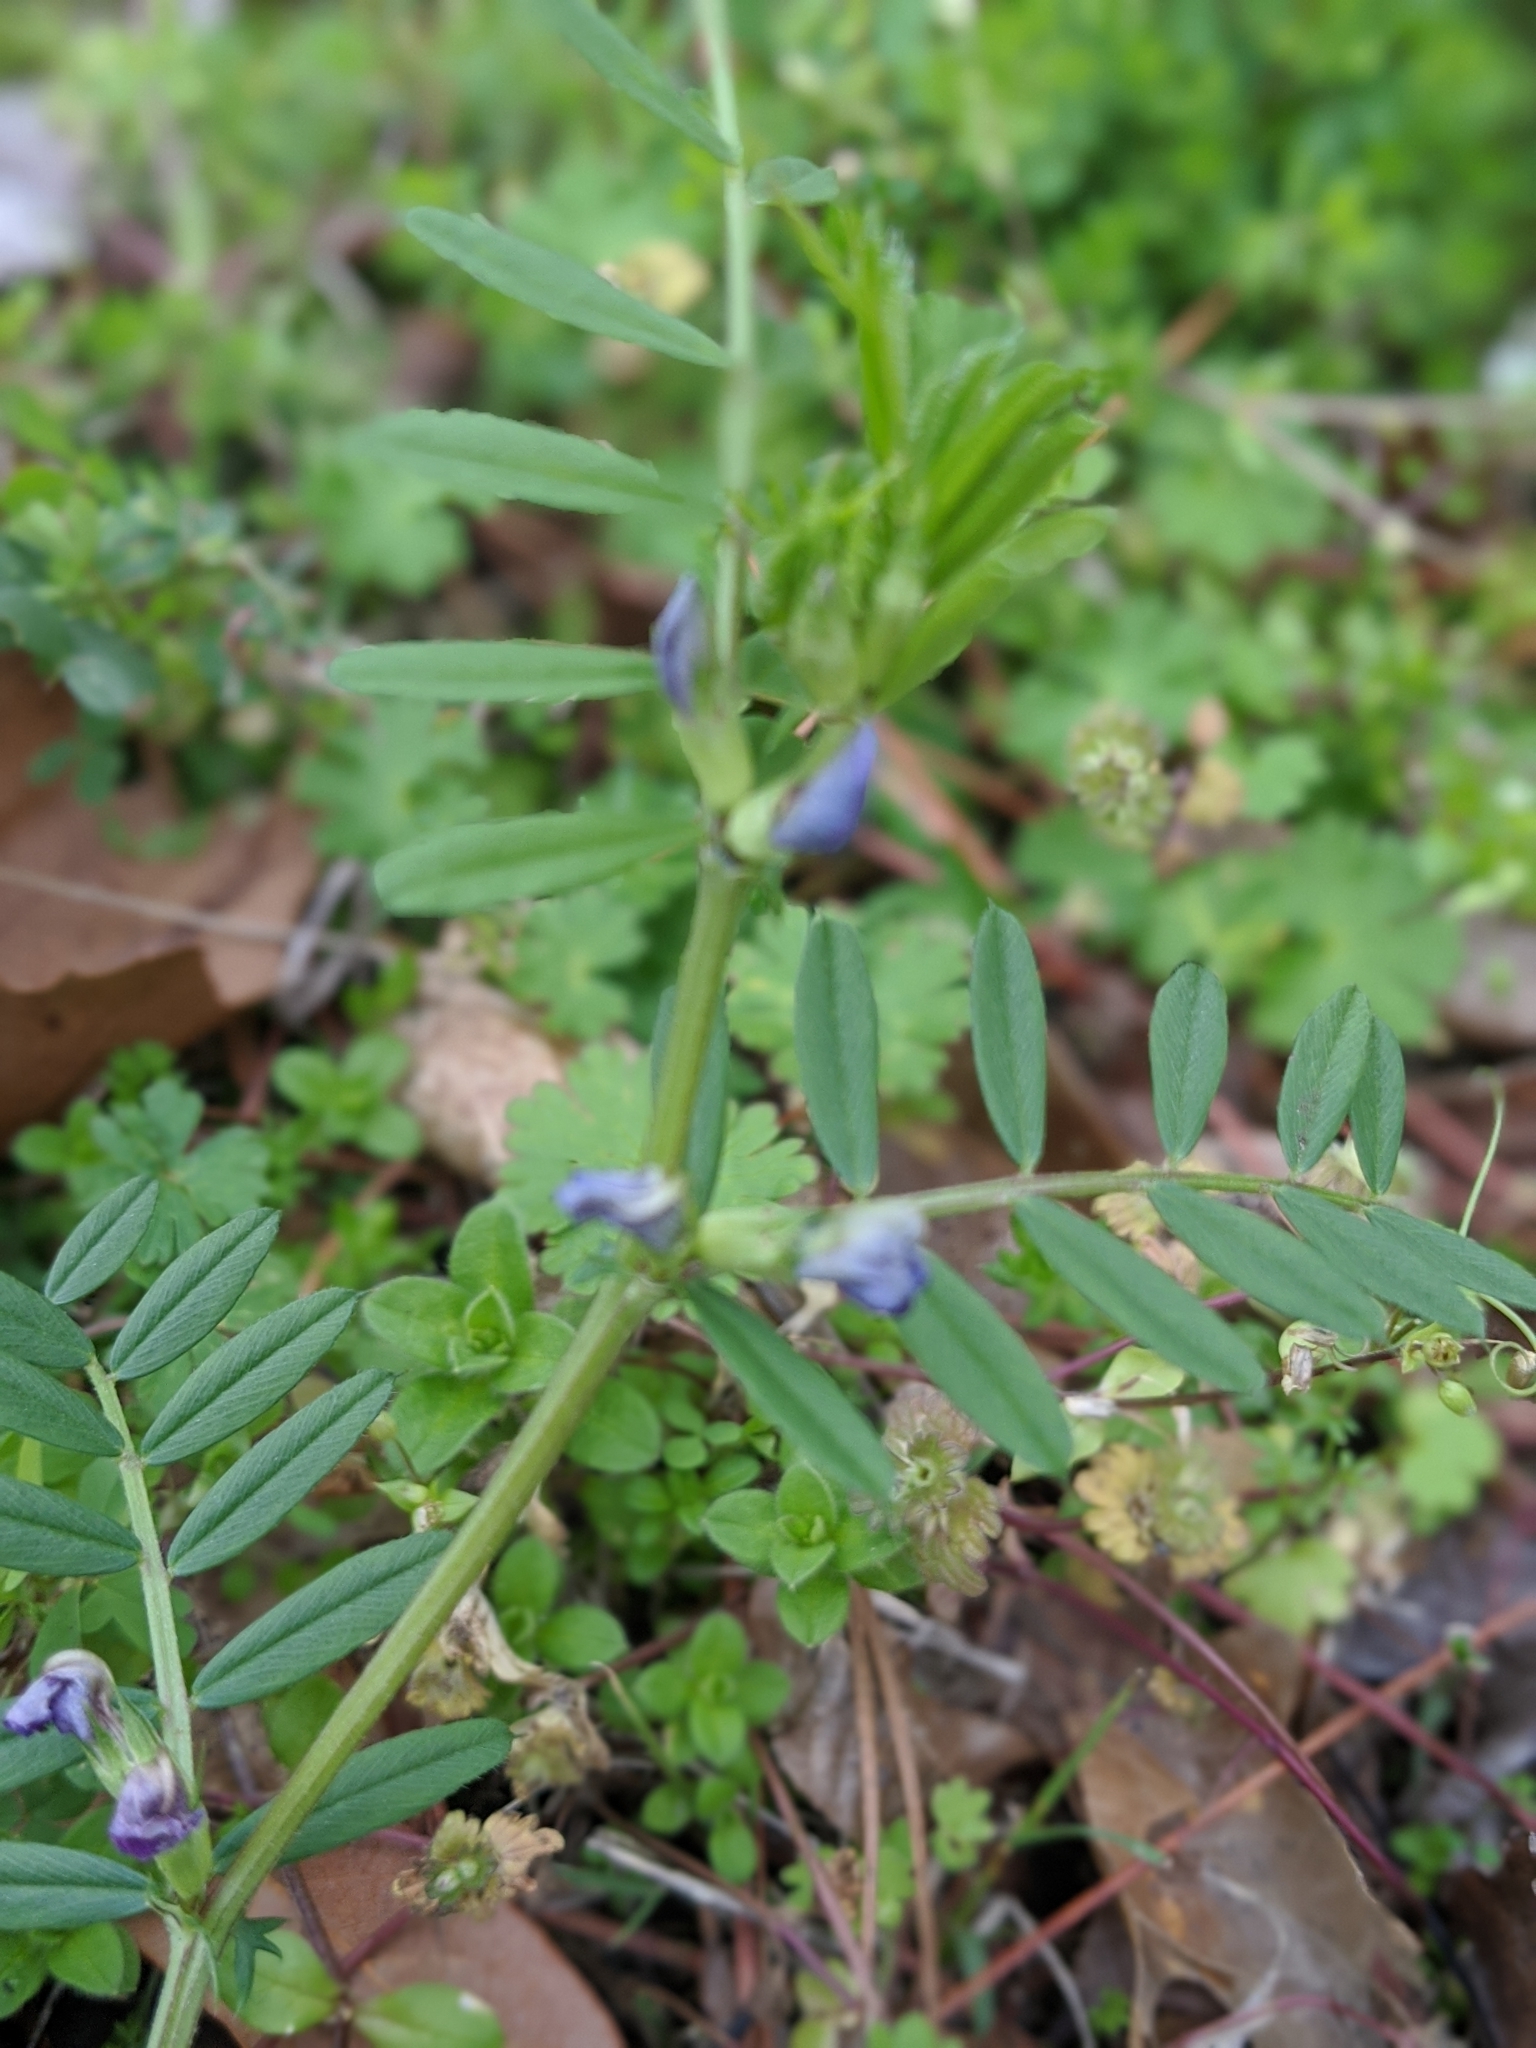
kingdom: Plantae
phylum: Tracheophyta
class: Magnoliopsida
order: Fabales
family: Fabaceae
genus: Vicia
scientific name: Vicia sativa
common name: Garden vetch
